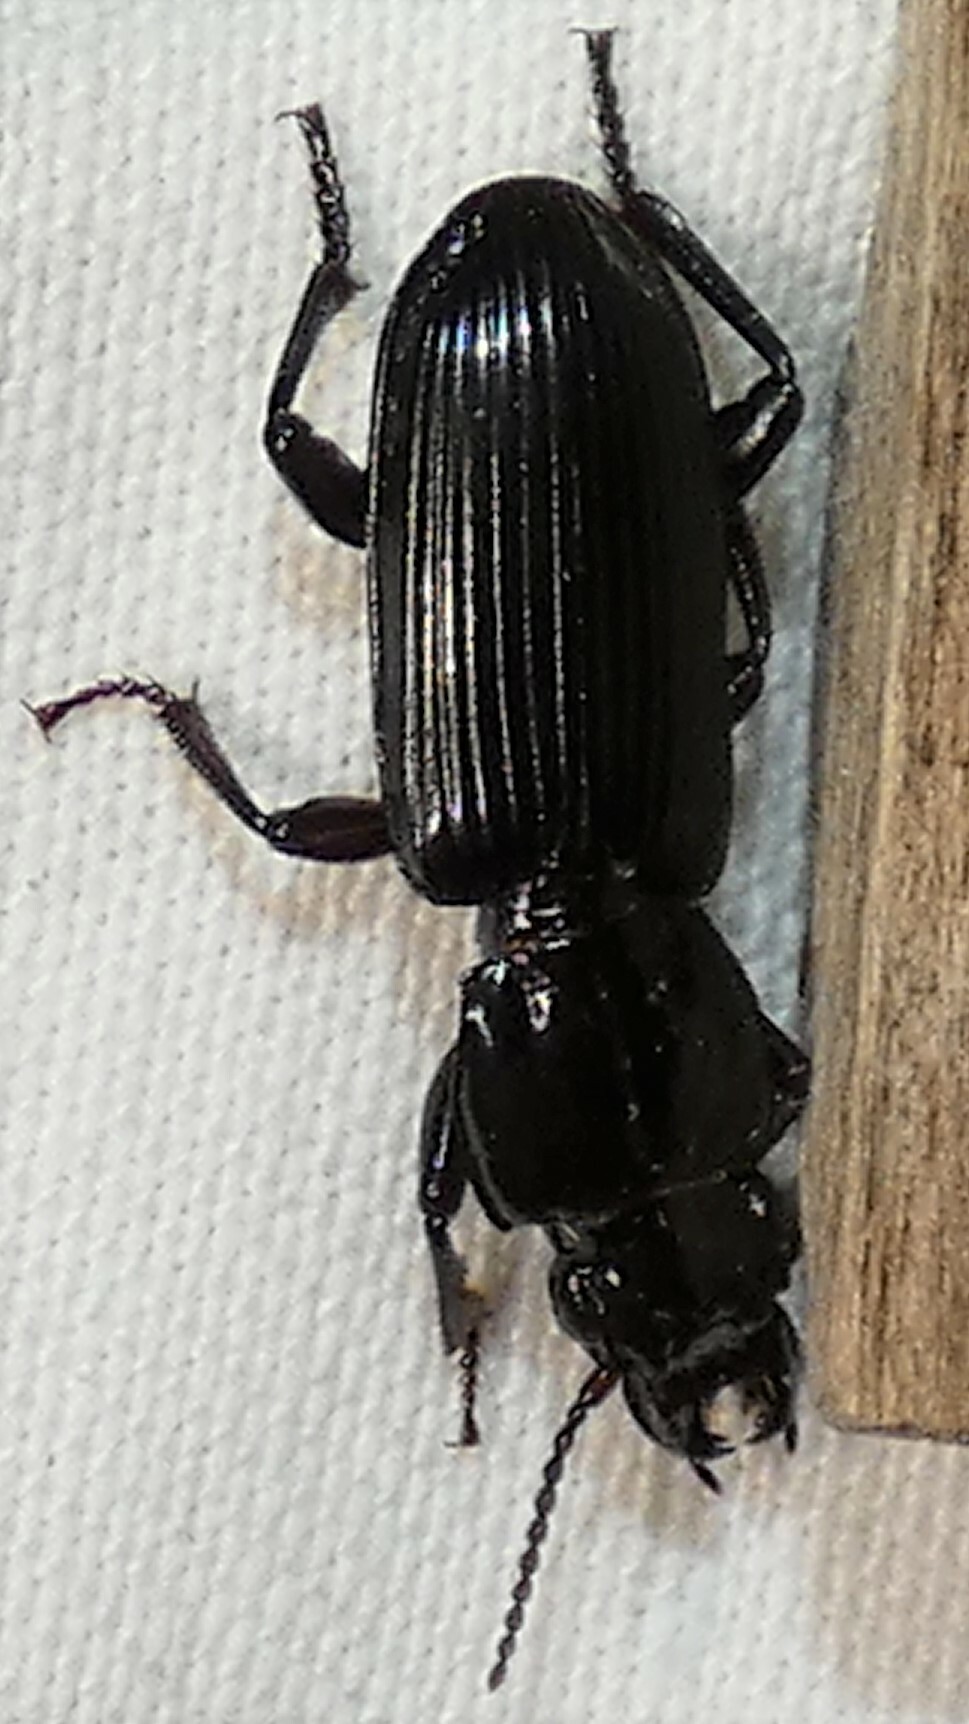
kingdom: Animalia
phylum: Arthropoda
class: Insecta
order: Coleoptera
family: Carabidae
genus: Morion
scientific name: Morion monilicornis
